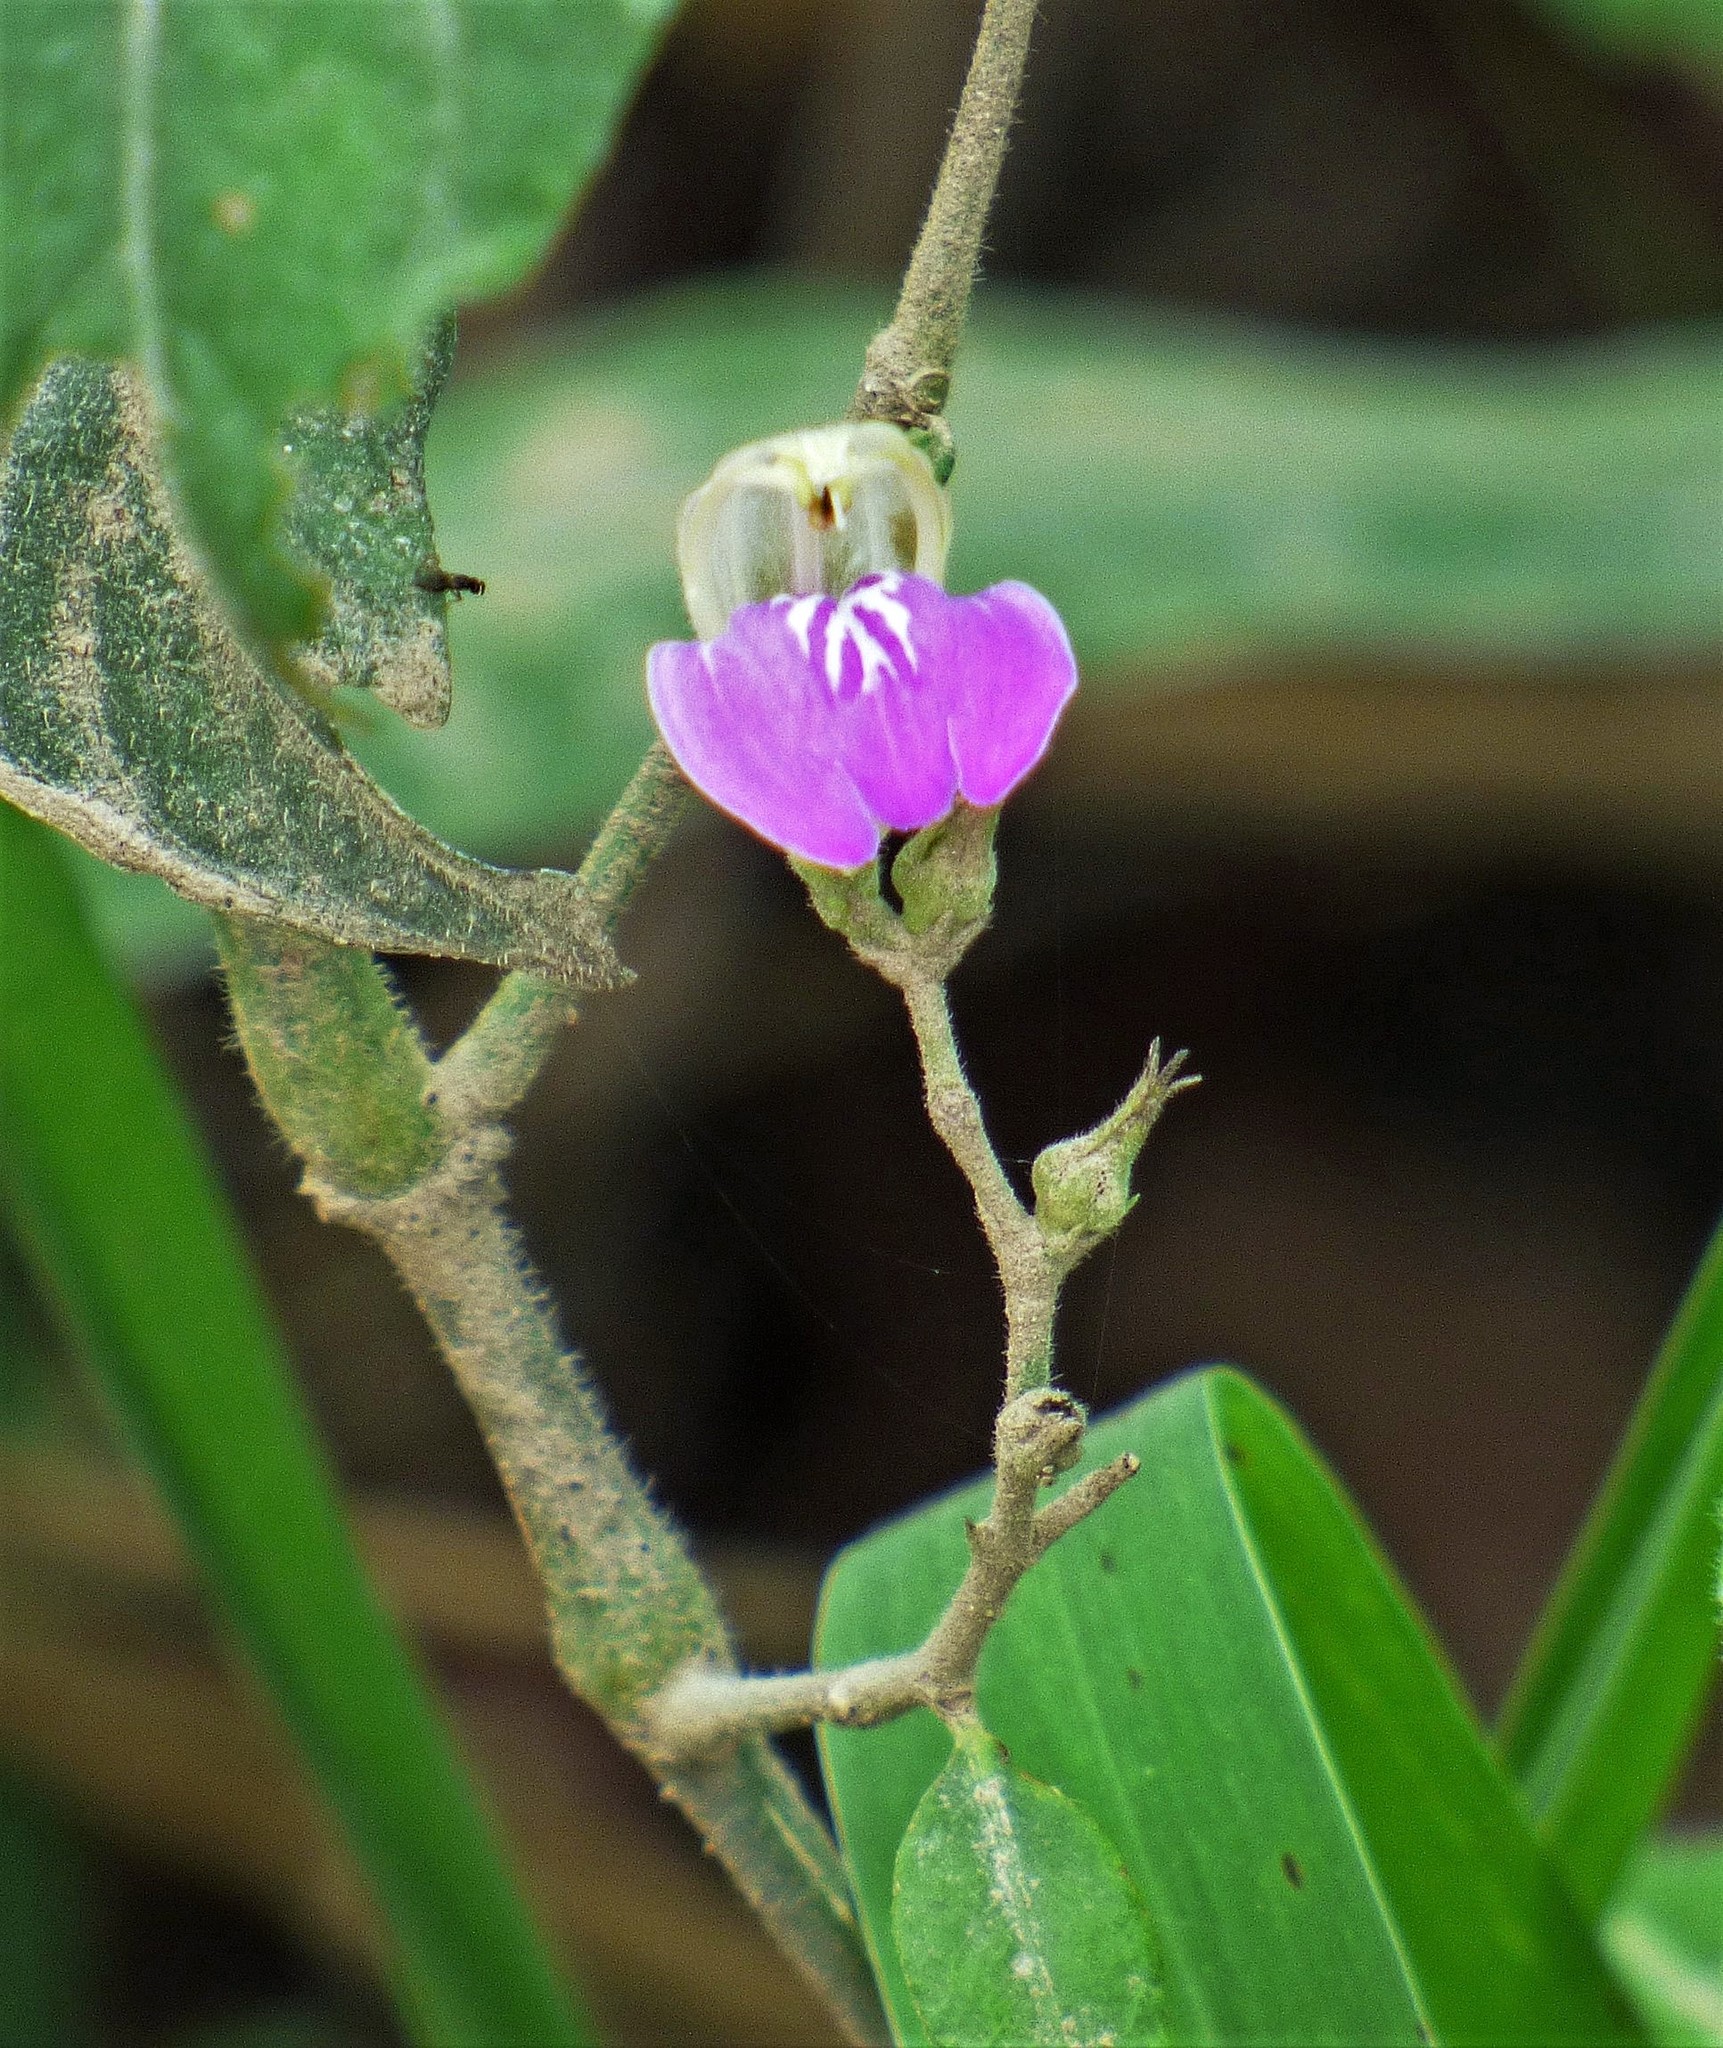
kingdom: Plantae
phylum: Tracheophyta
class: Magnoliopsida
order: Lamiales
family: Acanthaceae
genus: Justicia
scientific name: Justicia kuntzei
